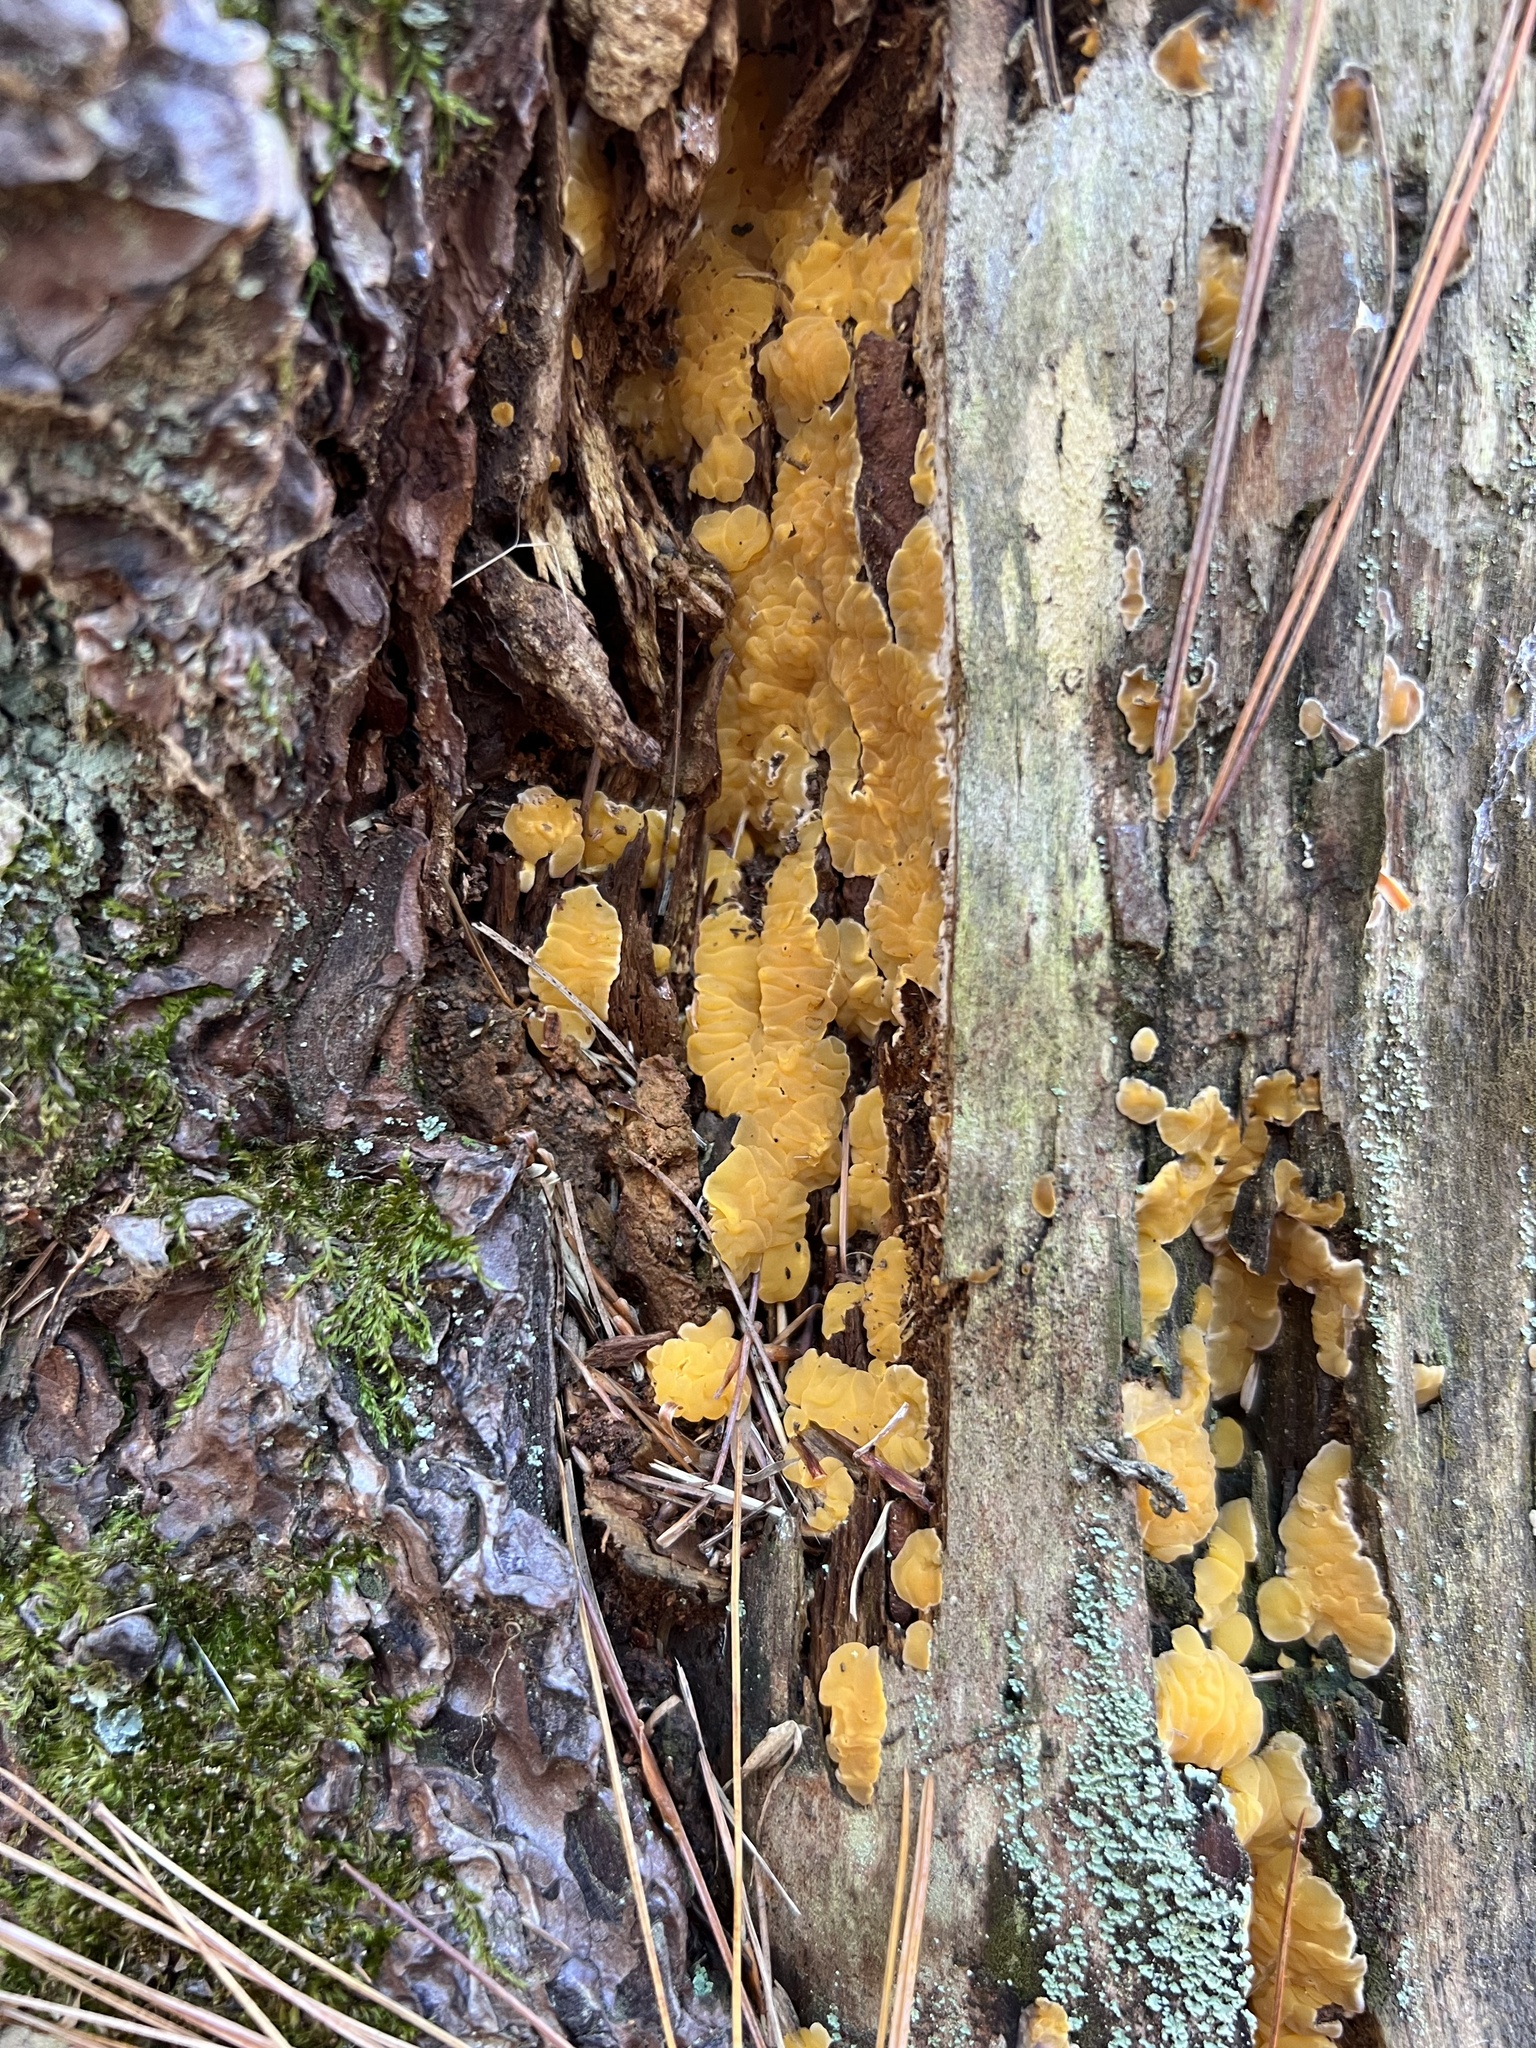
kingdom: Fungi
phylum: Basidiomycota
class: Dacrymycetes
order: Dacrymycetales
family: Dacrymycetaceae
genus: Dacrymyces
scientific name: Dacrymyces corticioides
